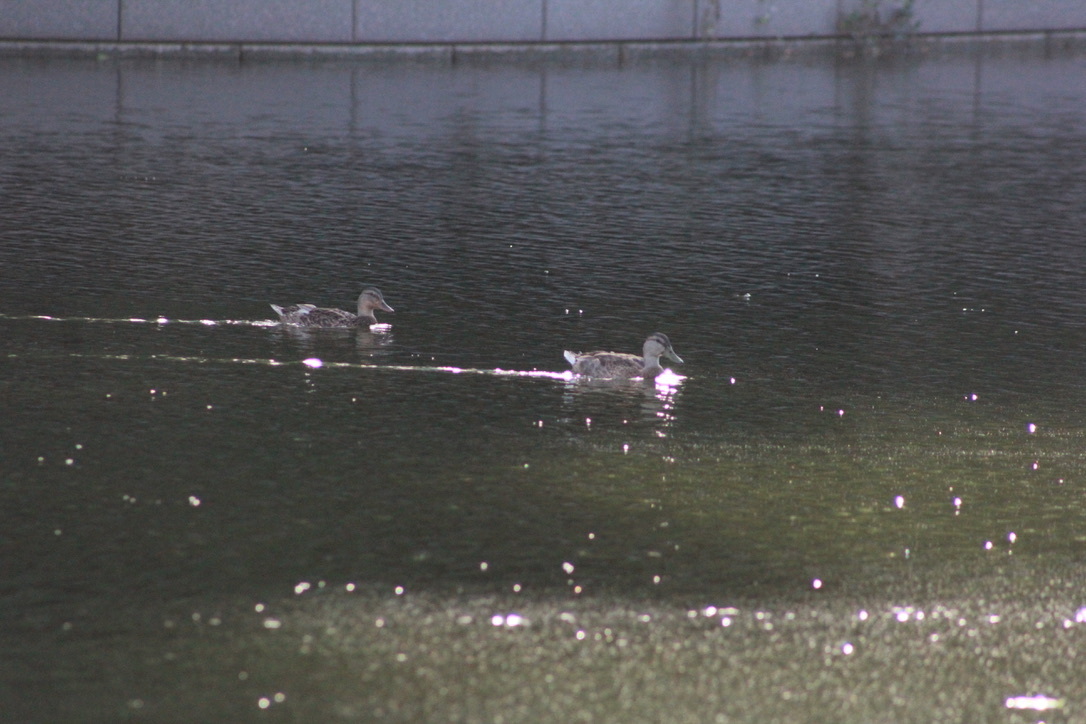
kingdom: Animalia
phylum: Chordata
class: Aves
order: Anseriformes
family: Anatidae
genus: Anas
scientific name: Anas platyrhynchos
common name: Mallard
